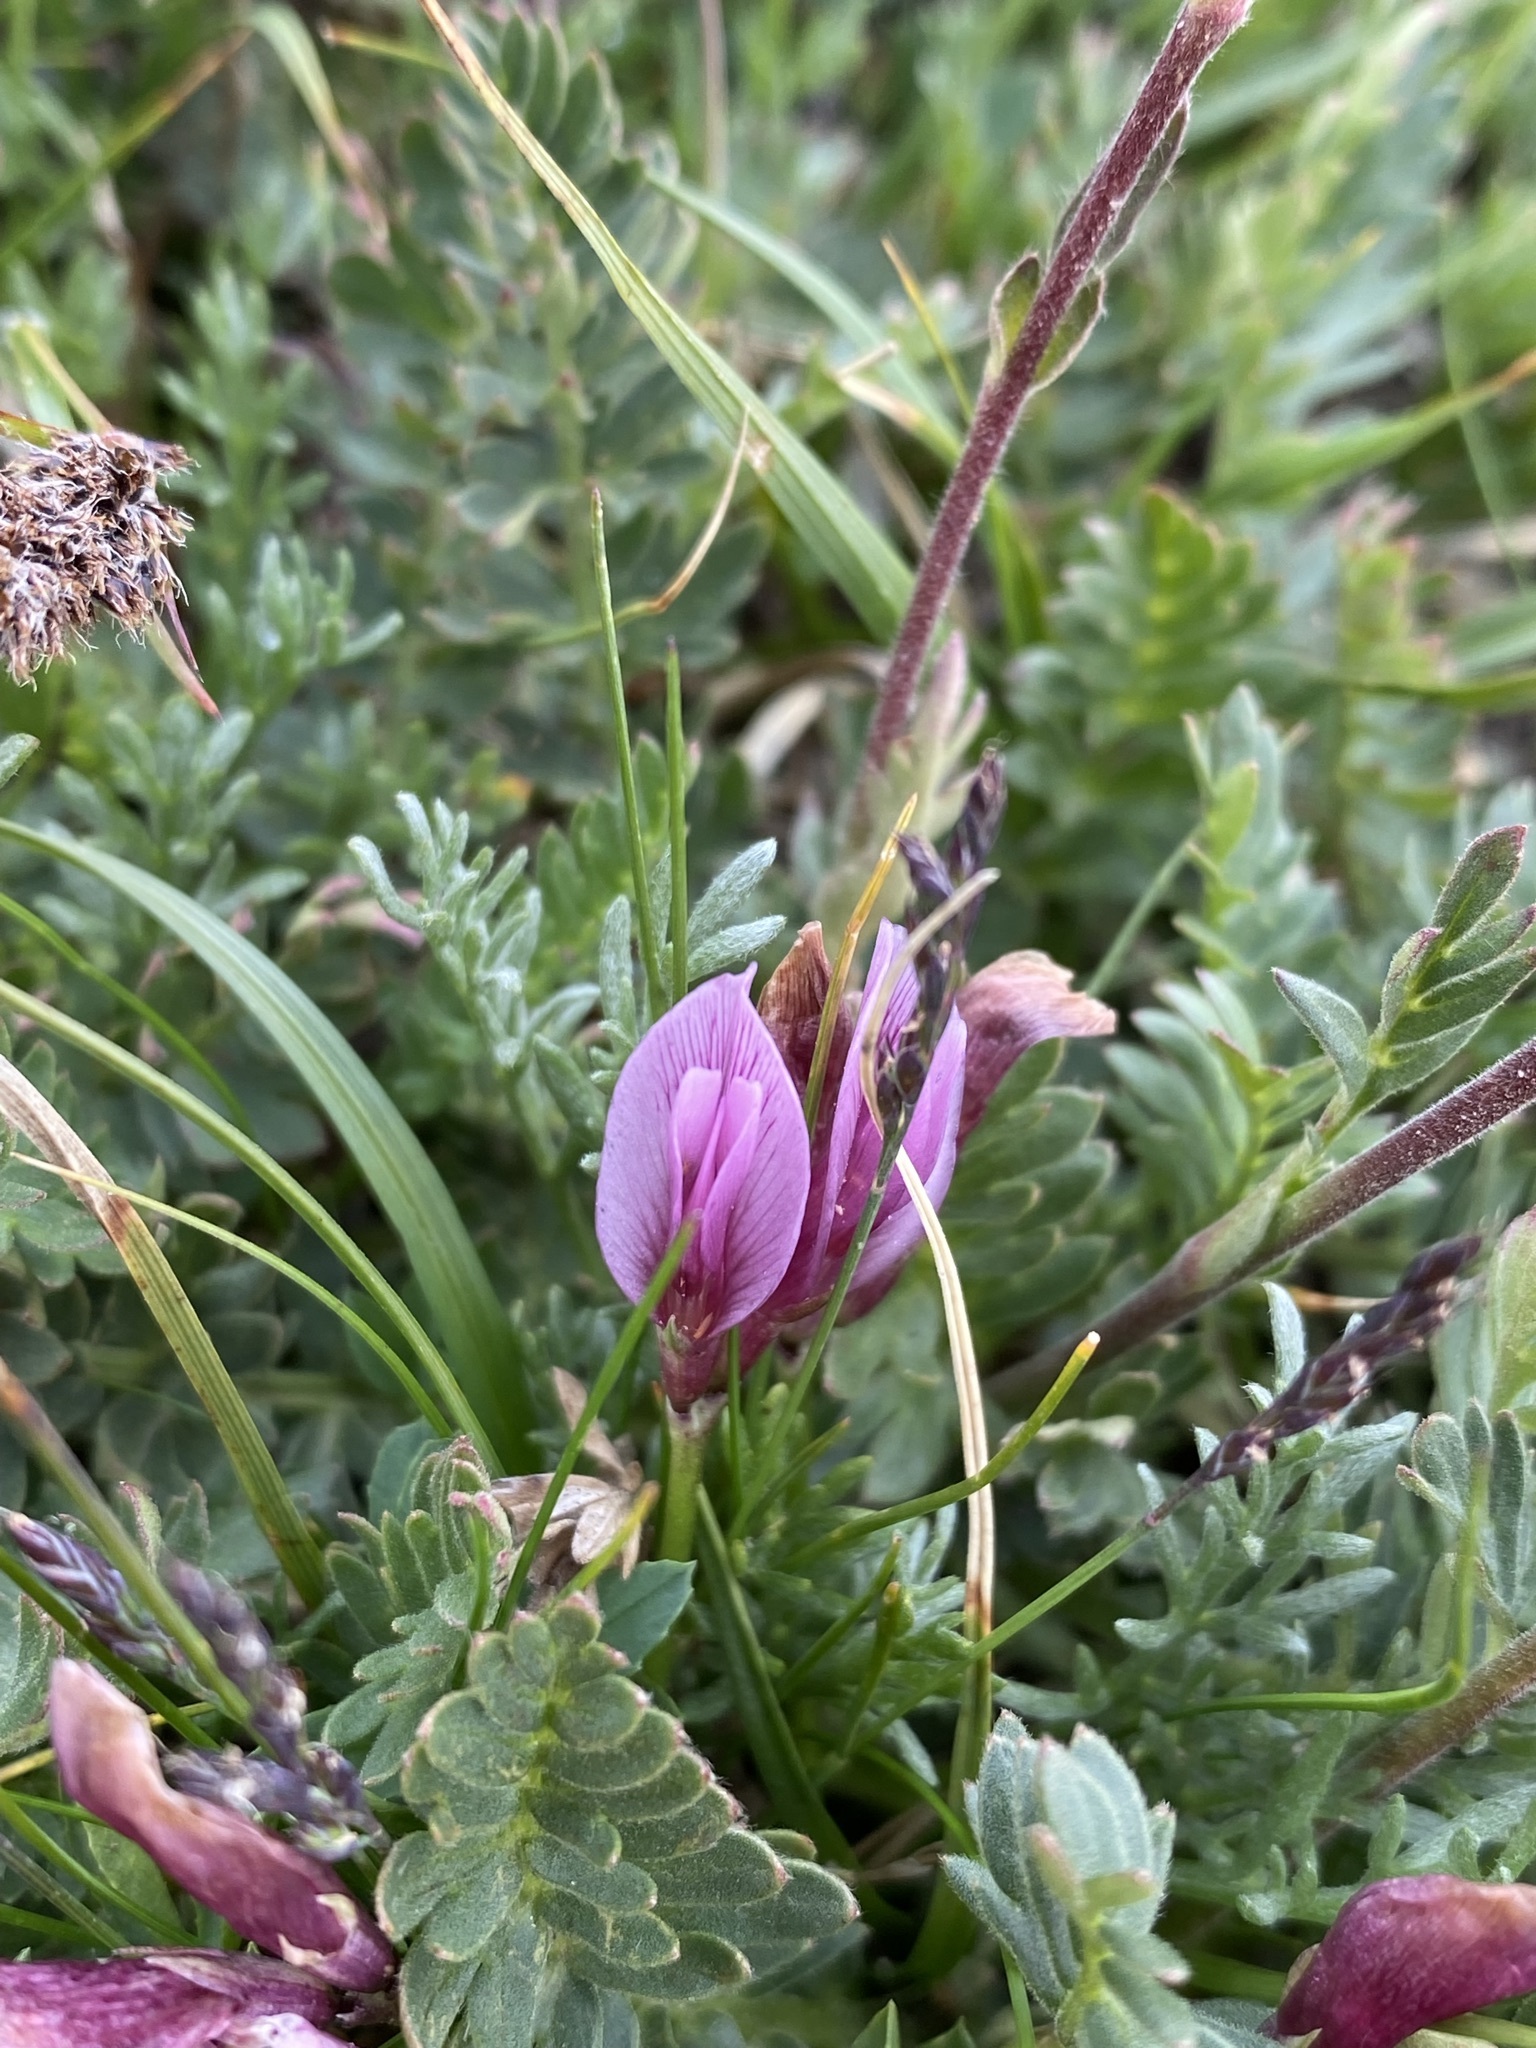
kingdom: Plantae
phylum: Tracheophyta
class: Magnoliopsida
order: Fabales
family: Fabaceae
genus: Trifolium
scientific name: Trifolium nanum
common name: Tundra clover
